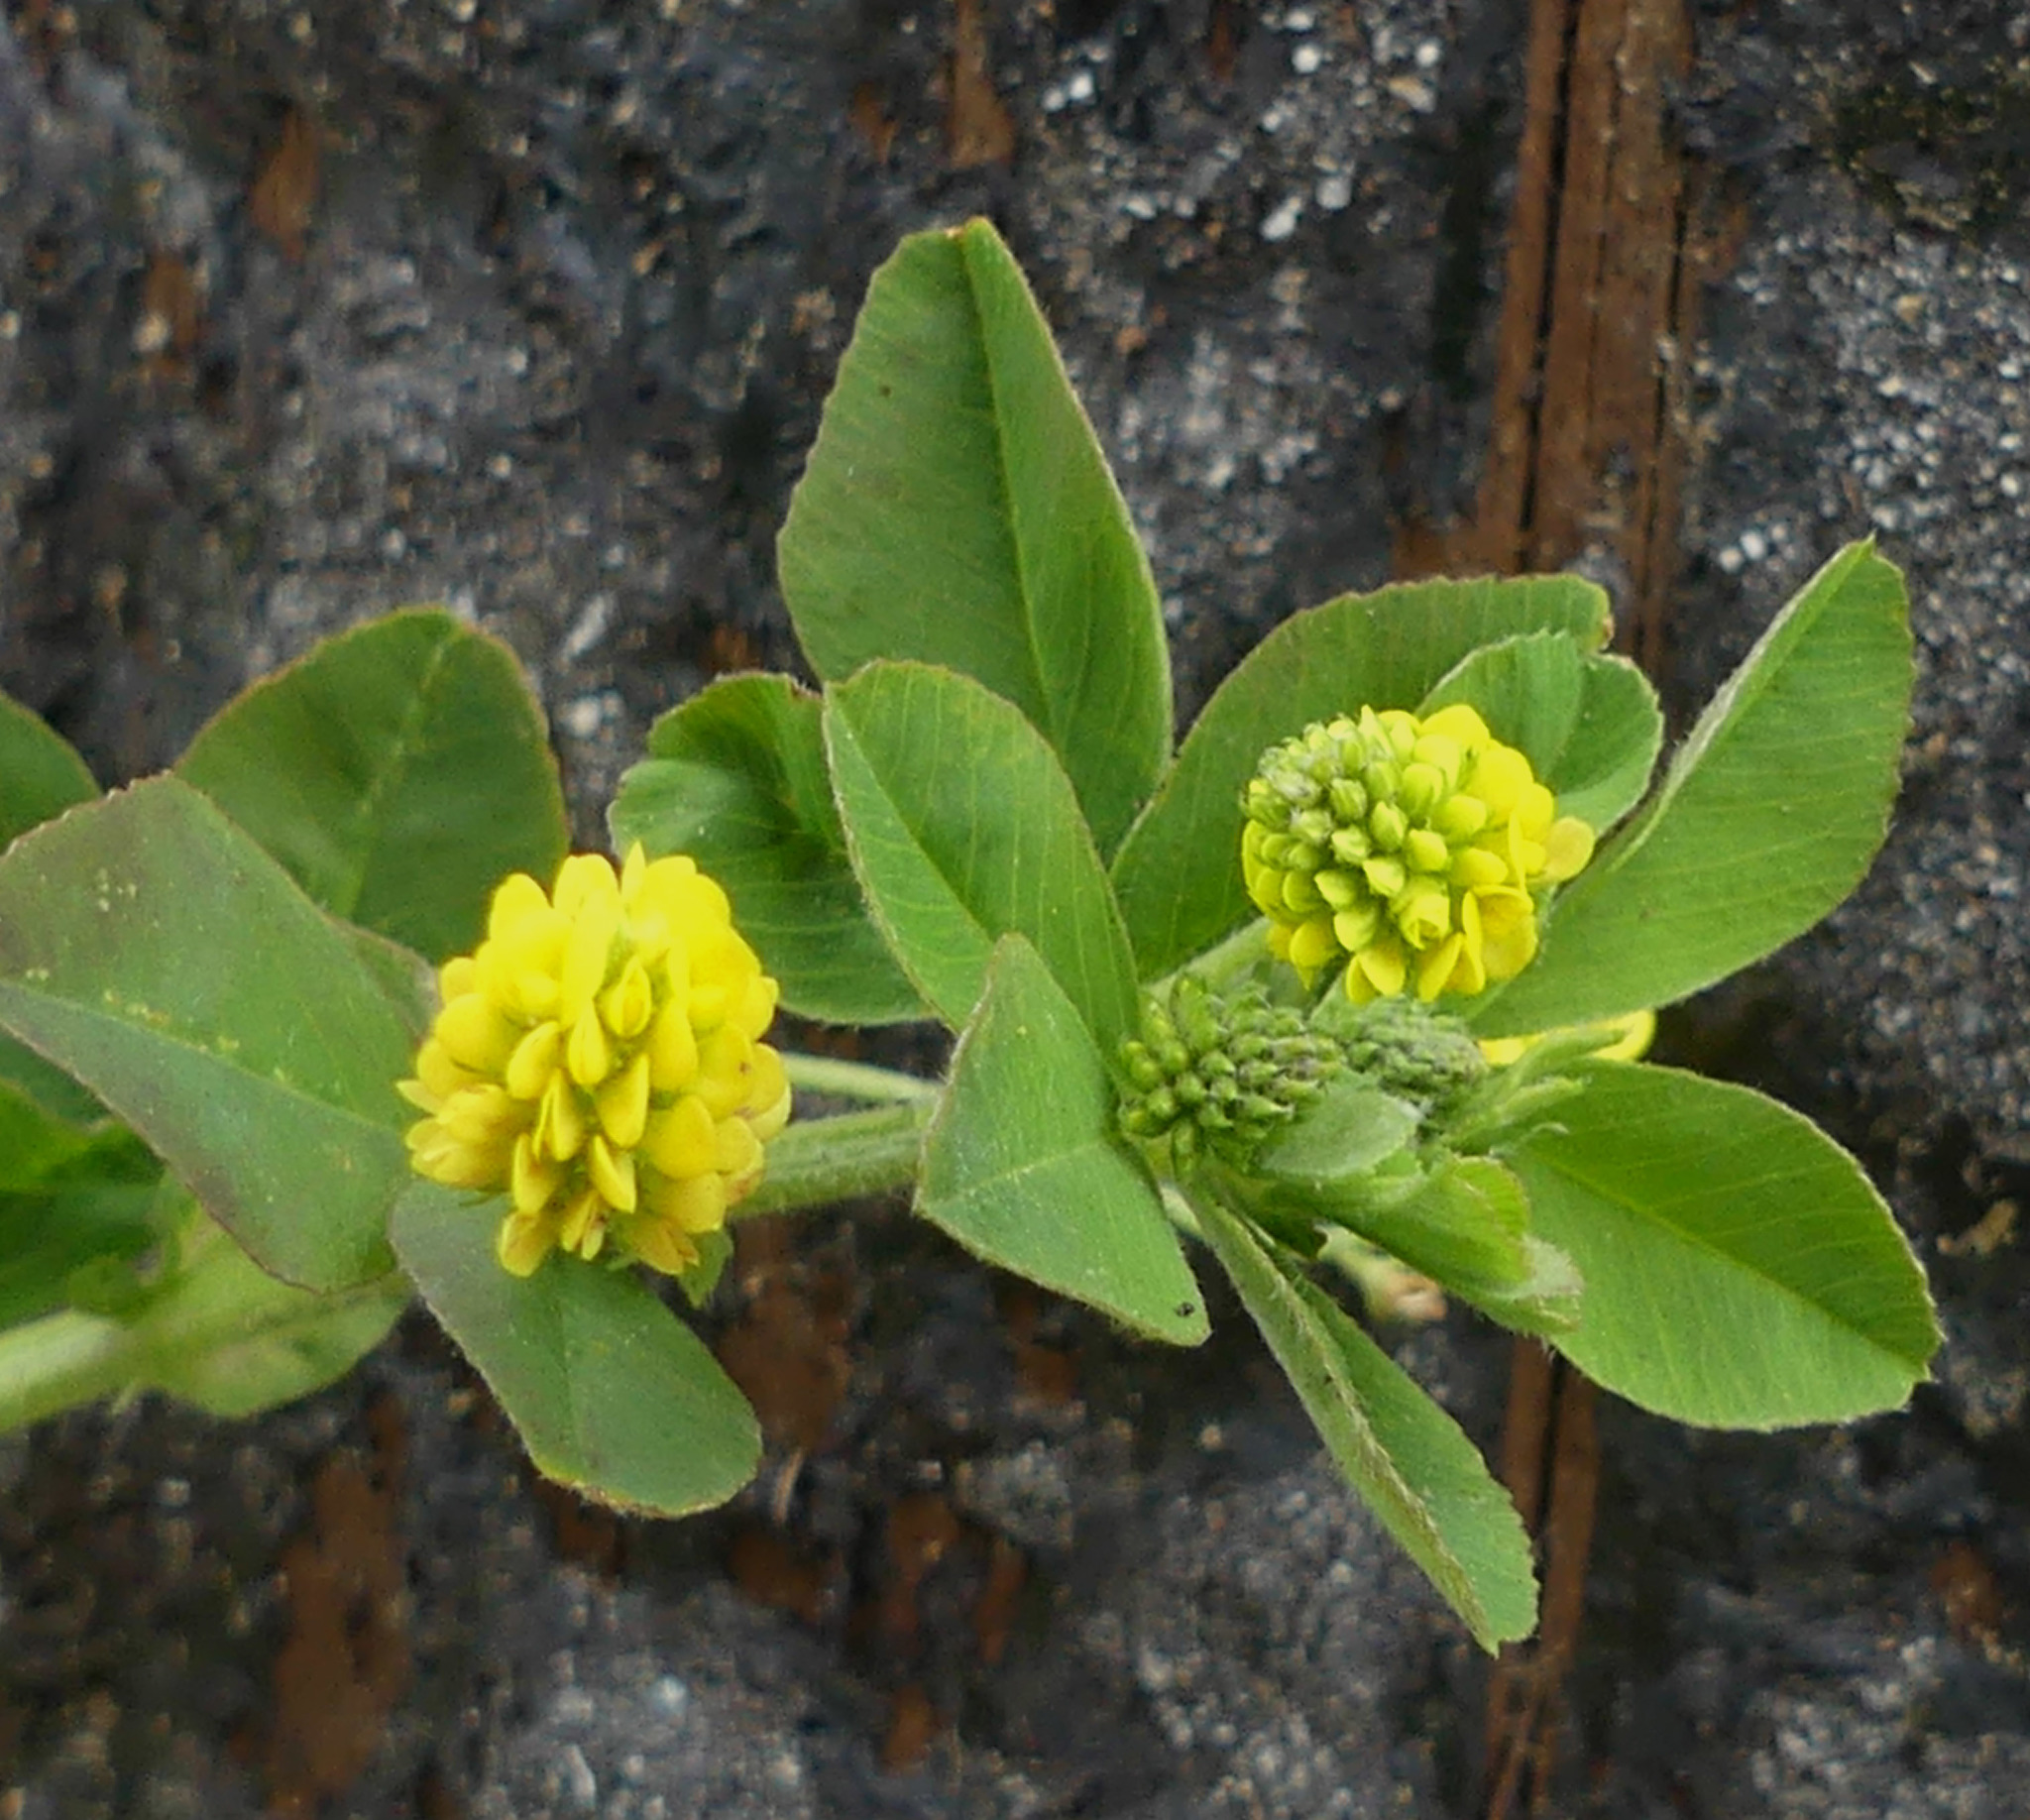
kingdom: Plantae
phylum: Tracheophyta
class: Magnoliopsida
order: Fabales
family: Fabaceae
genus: Medicago
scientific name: Medicago lupulina
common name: Black medick
